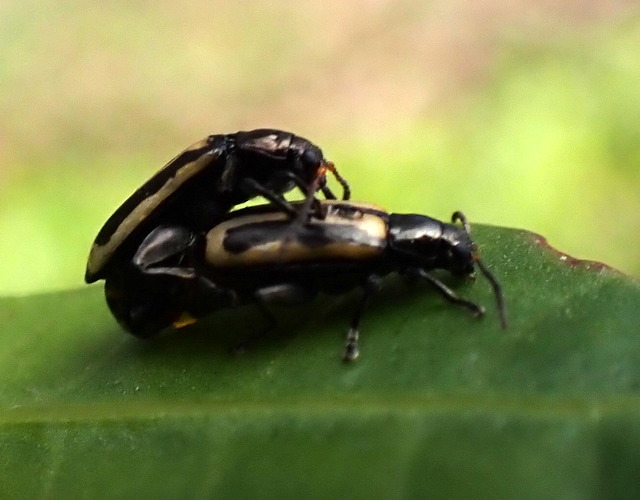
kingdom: Animalia
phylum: Arthropoda
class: Insecta
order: Coleoptera
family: Chrysomelidae
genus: Agasicles
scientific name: Agasicles hygrophila
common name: Alligatorweed flea beetle
